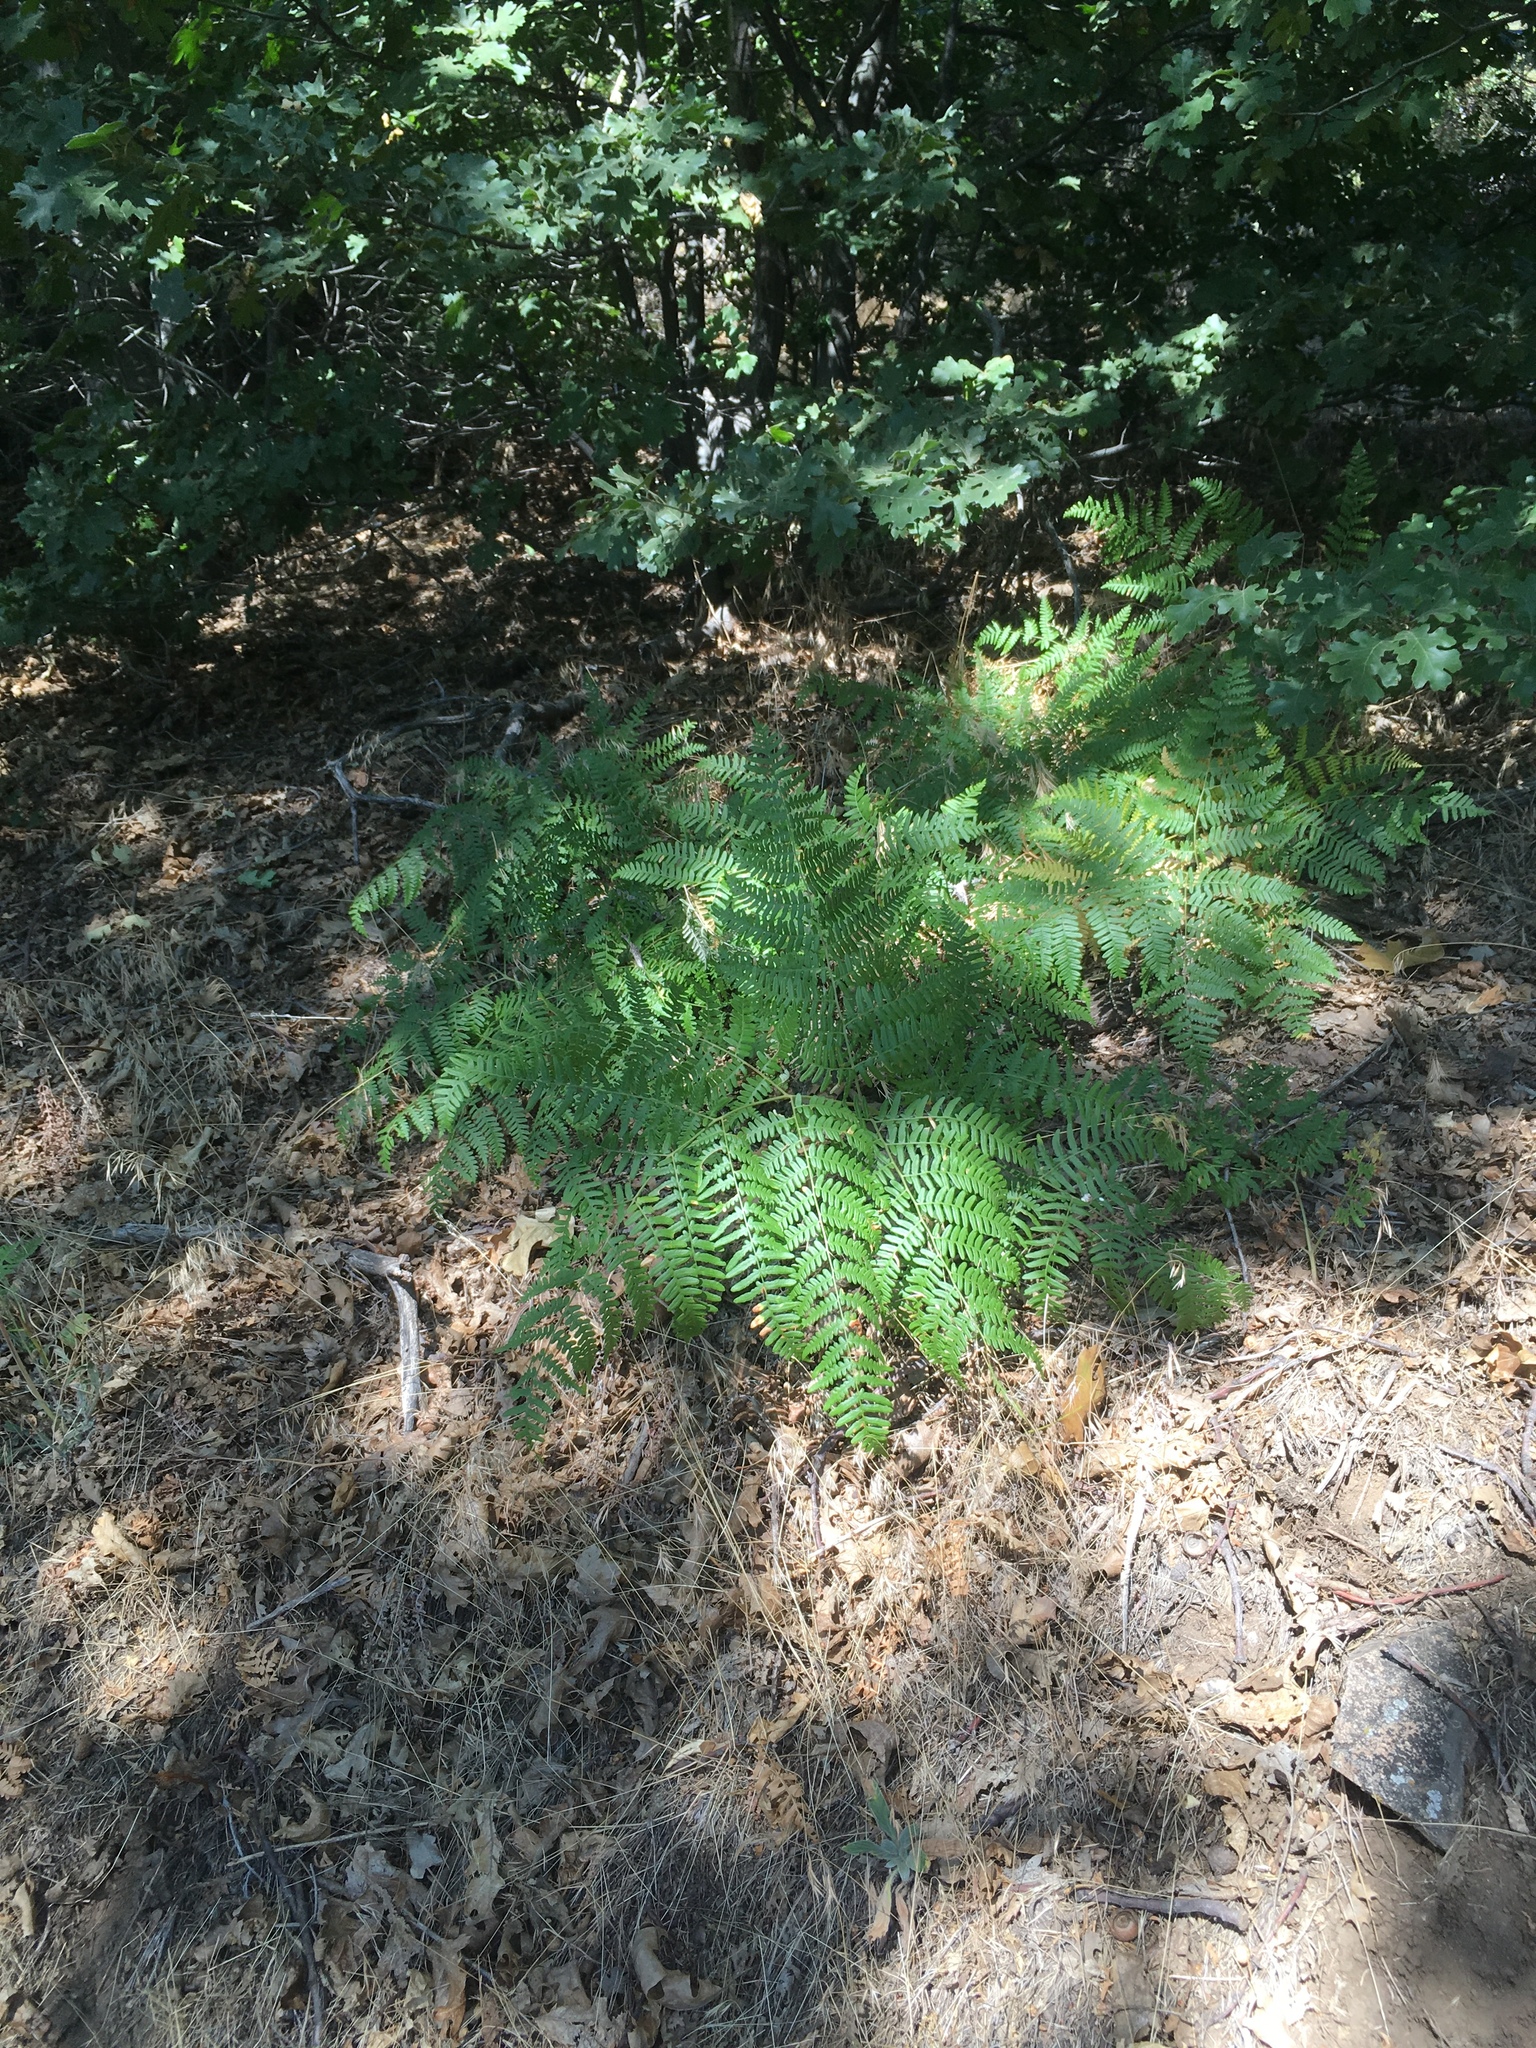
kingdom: Plantae
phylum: Tracheophyta
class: Polypodiopsida
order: Polypodiales
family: Dennstaedtiaceae
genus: Pteridium
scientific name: Pteridium aquilinum
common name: Bracken
